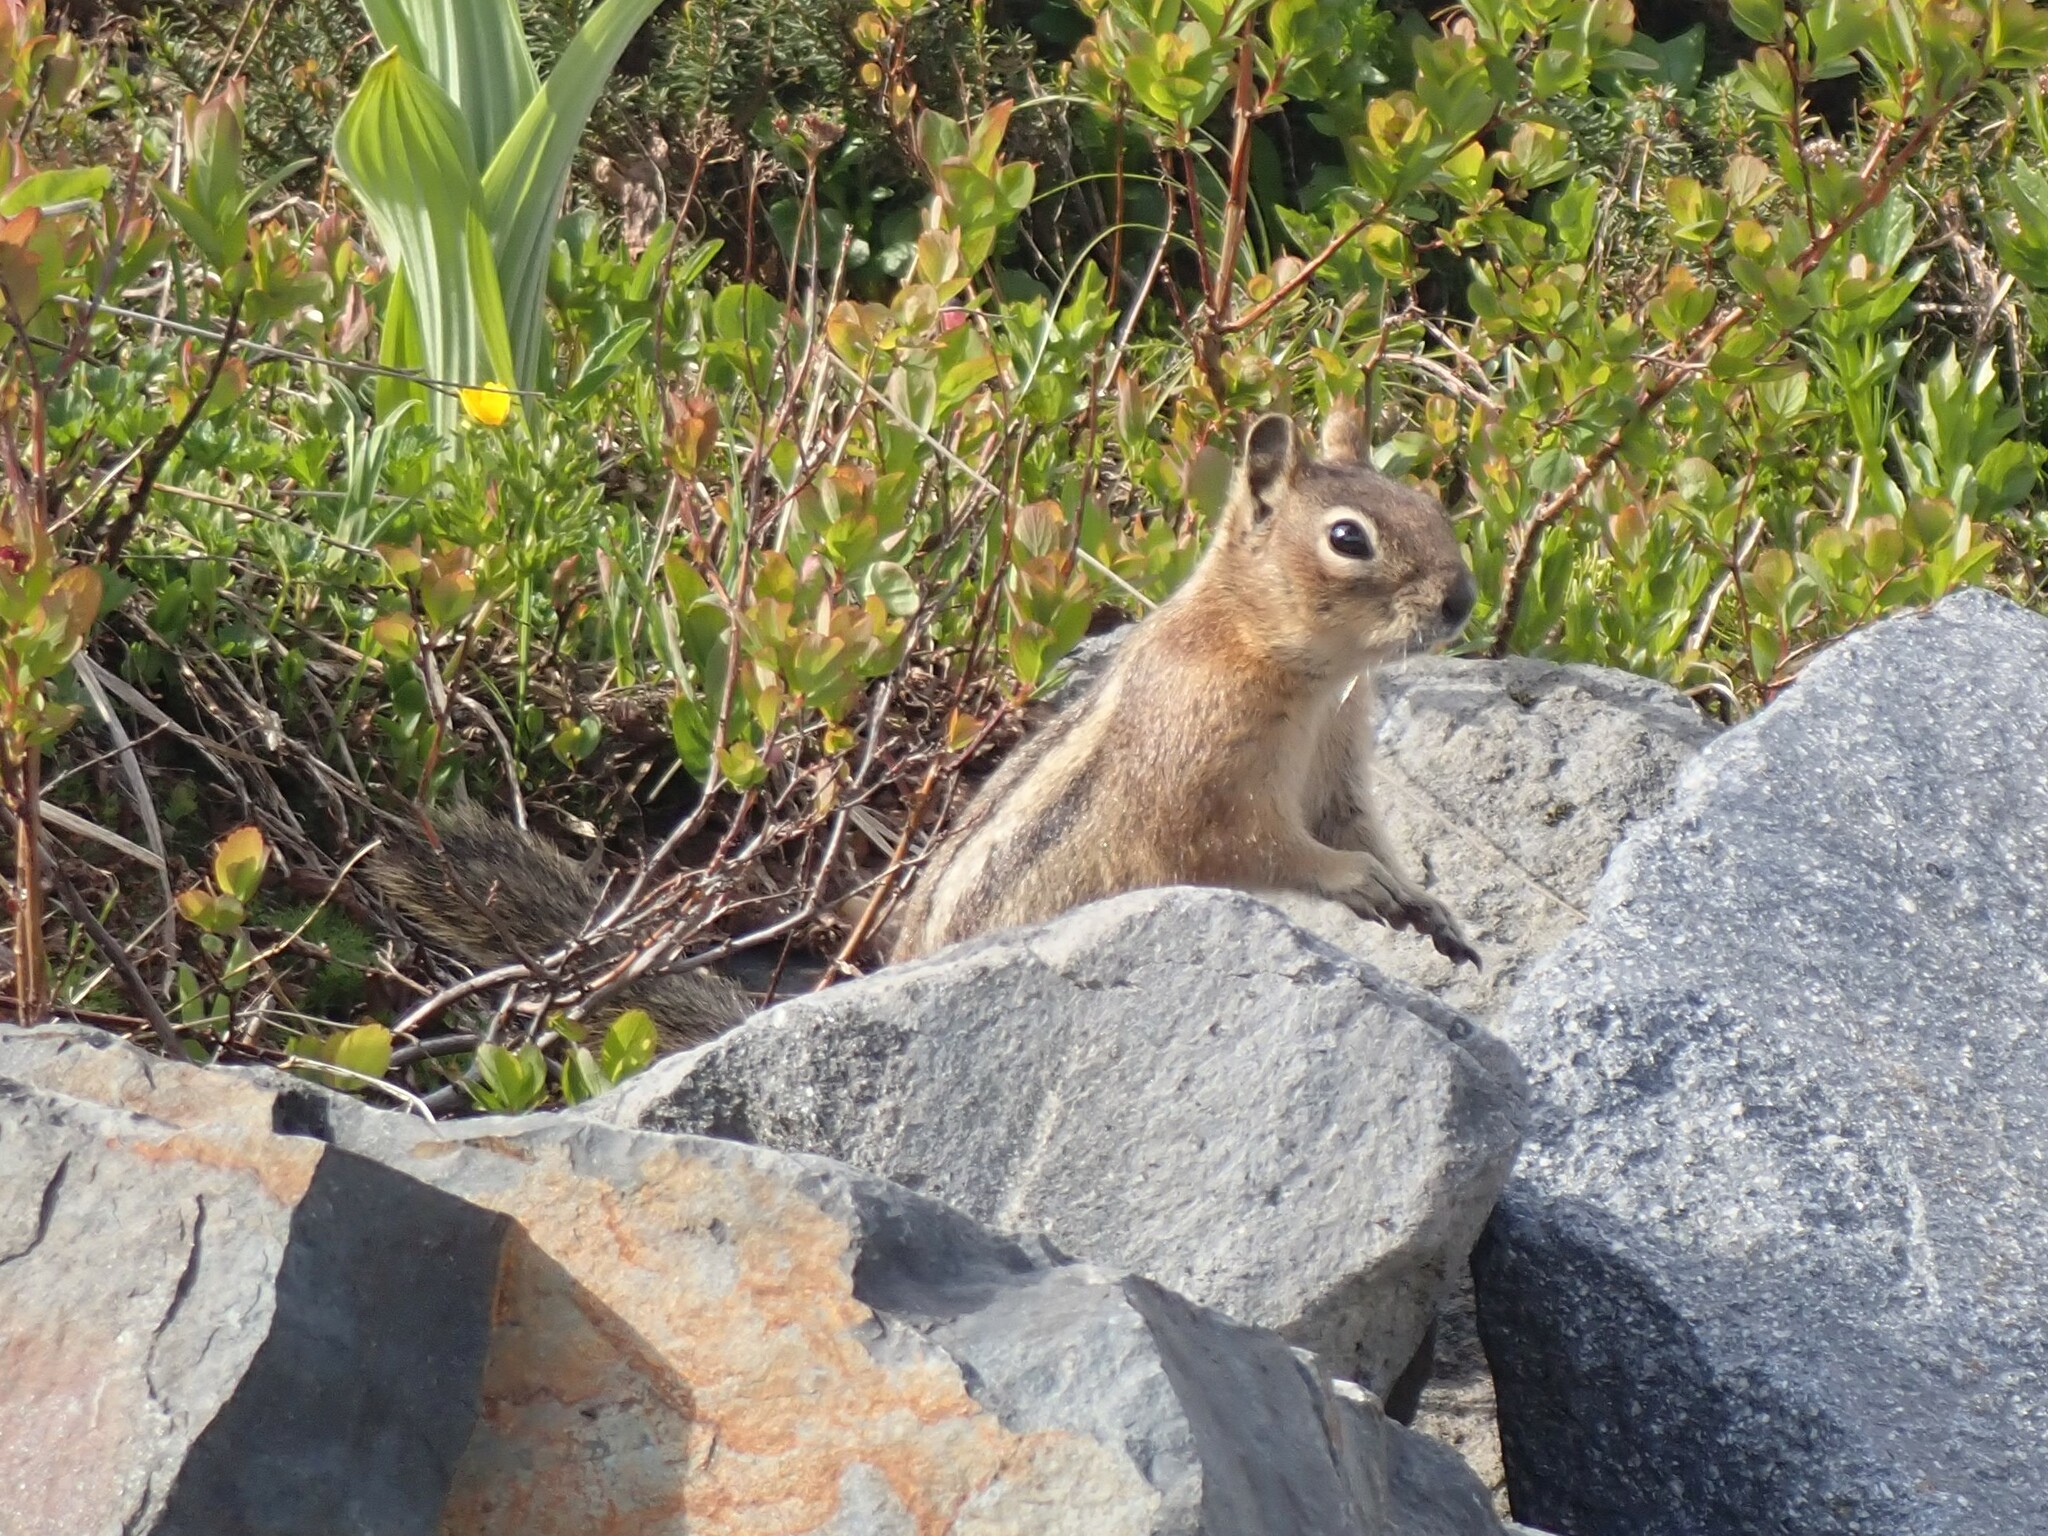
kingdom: Animalia
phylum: Chordata
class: Mammalia
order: Rodentia
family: Sciuridae
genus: Callospermophilus
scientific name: Callospermophilus saturatus
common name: Cascade golden-mantled ground squirrel
